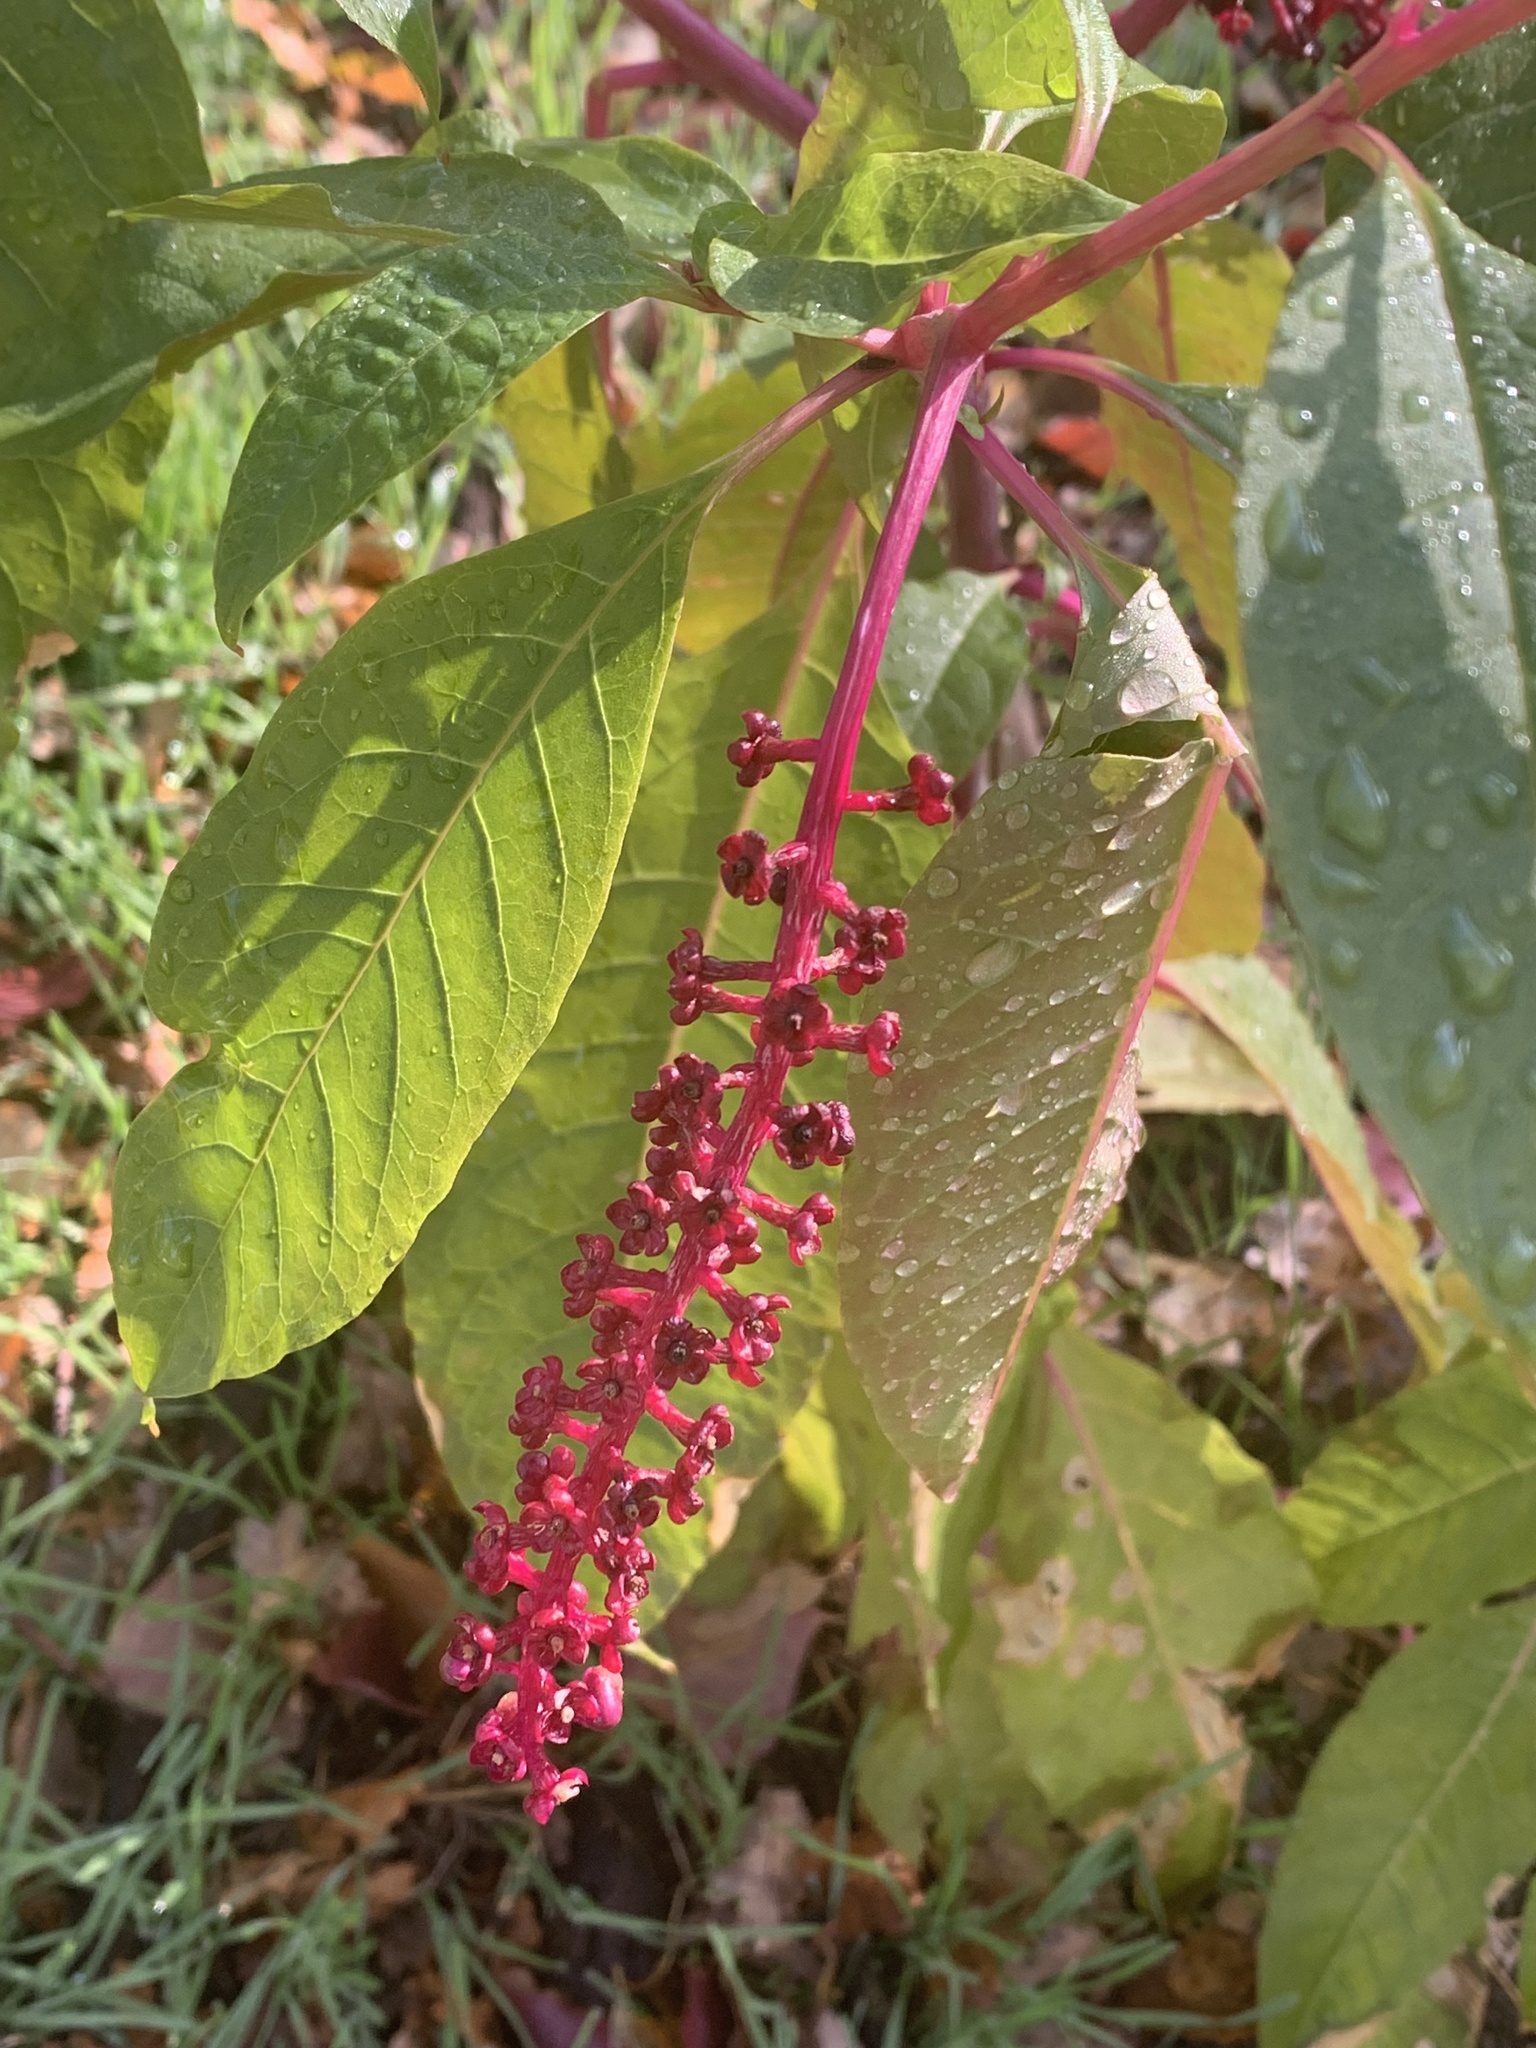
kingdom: Plantae
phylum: Tracheophyta
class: Magnoliopsida
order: Caryophyllales
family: Phytolaccaceae
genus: Phytolacca
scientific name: Phytolacca americana
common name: American pokeweed
